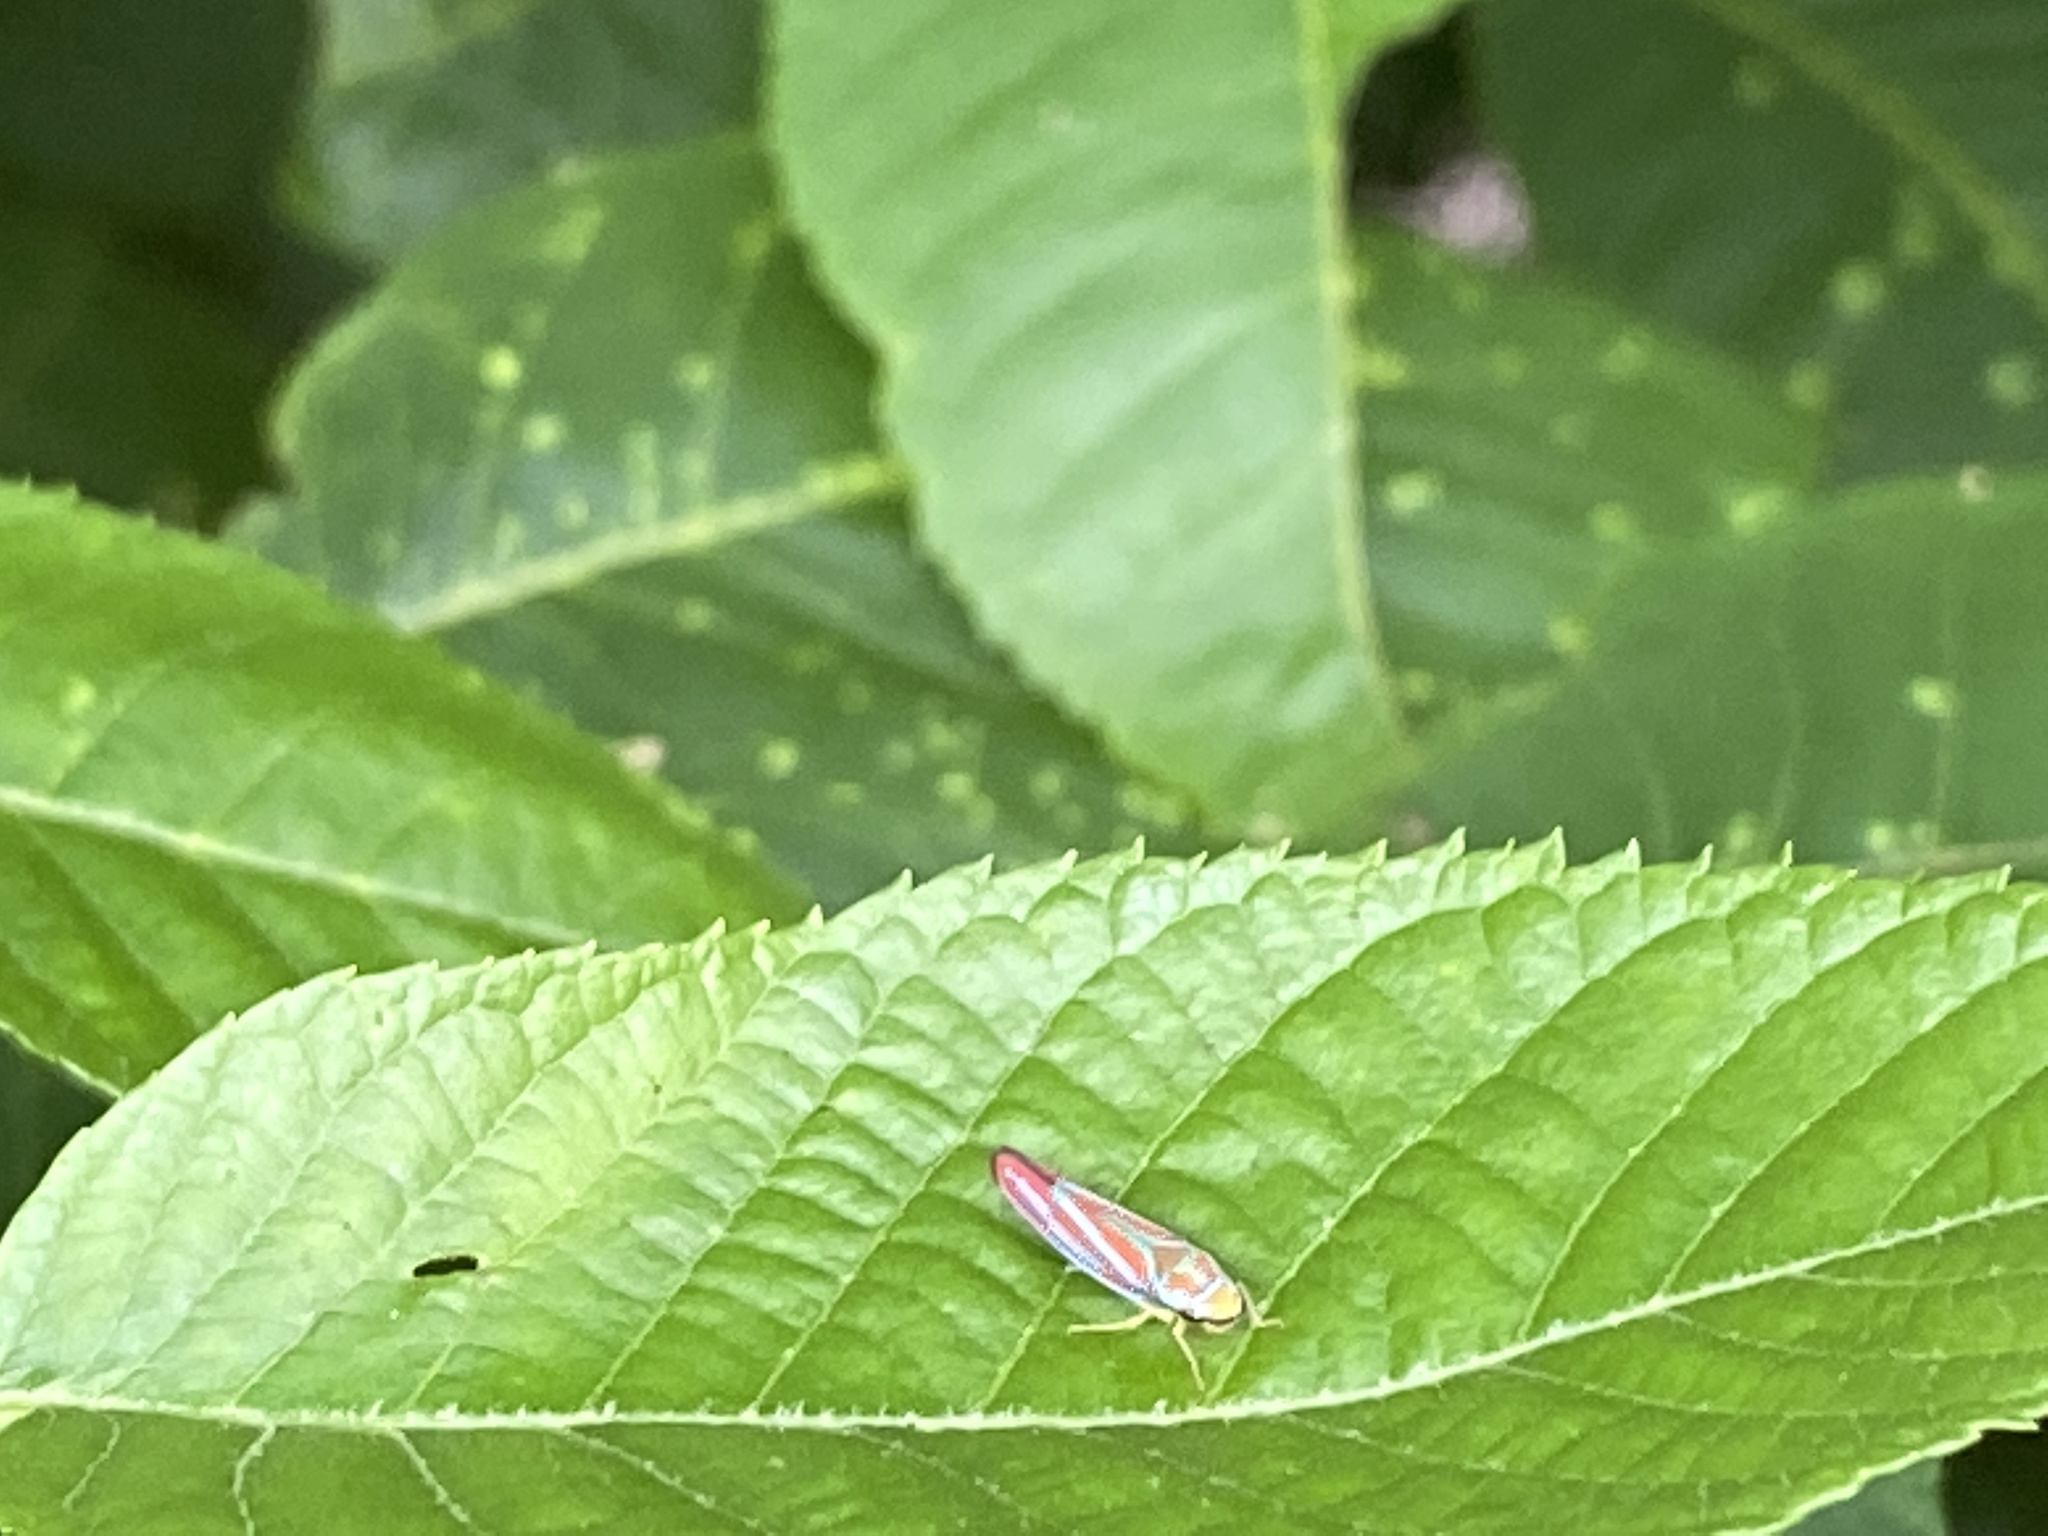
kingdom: Animalia
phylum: Arthropoda
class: Insecta
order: Hemiptera
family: Cicadellidae
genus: Graphocephala
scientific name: Graphocephala coccinea
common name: Candy-striped leafhopper
